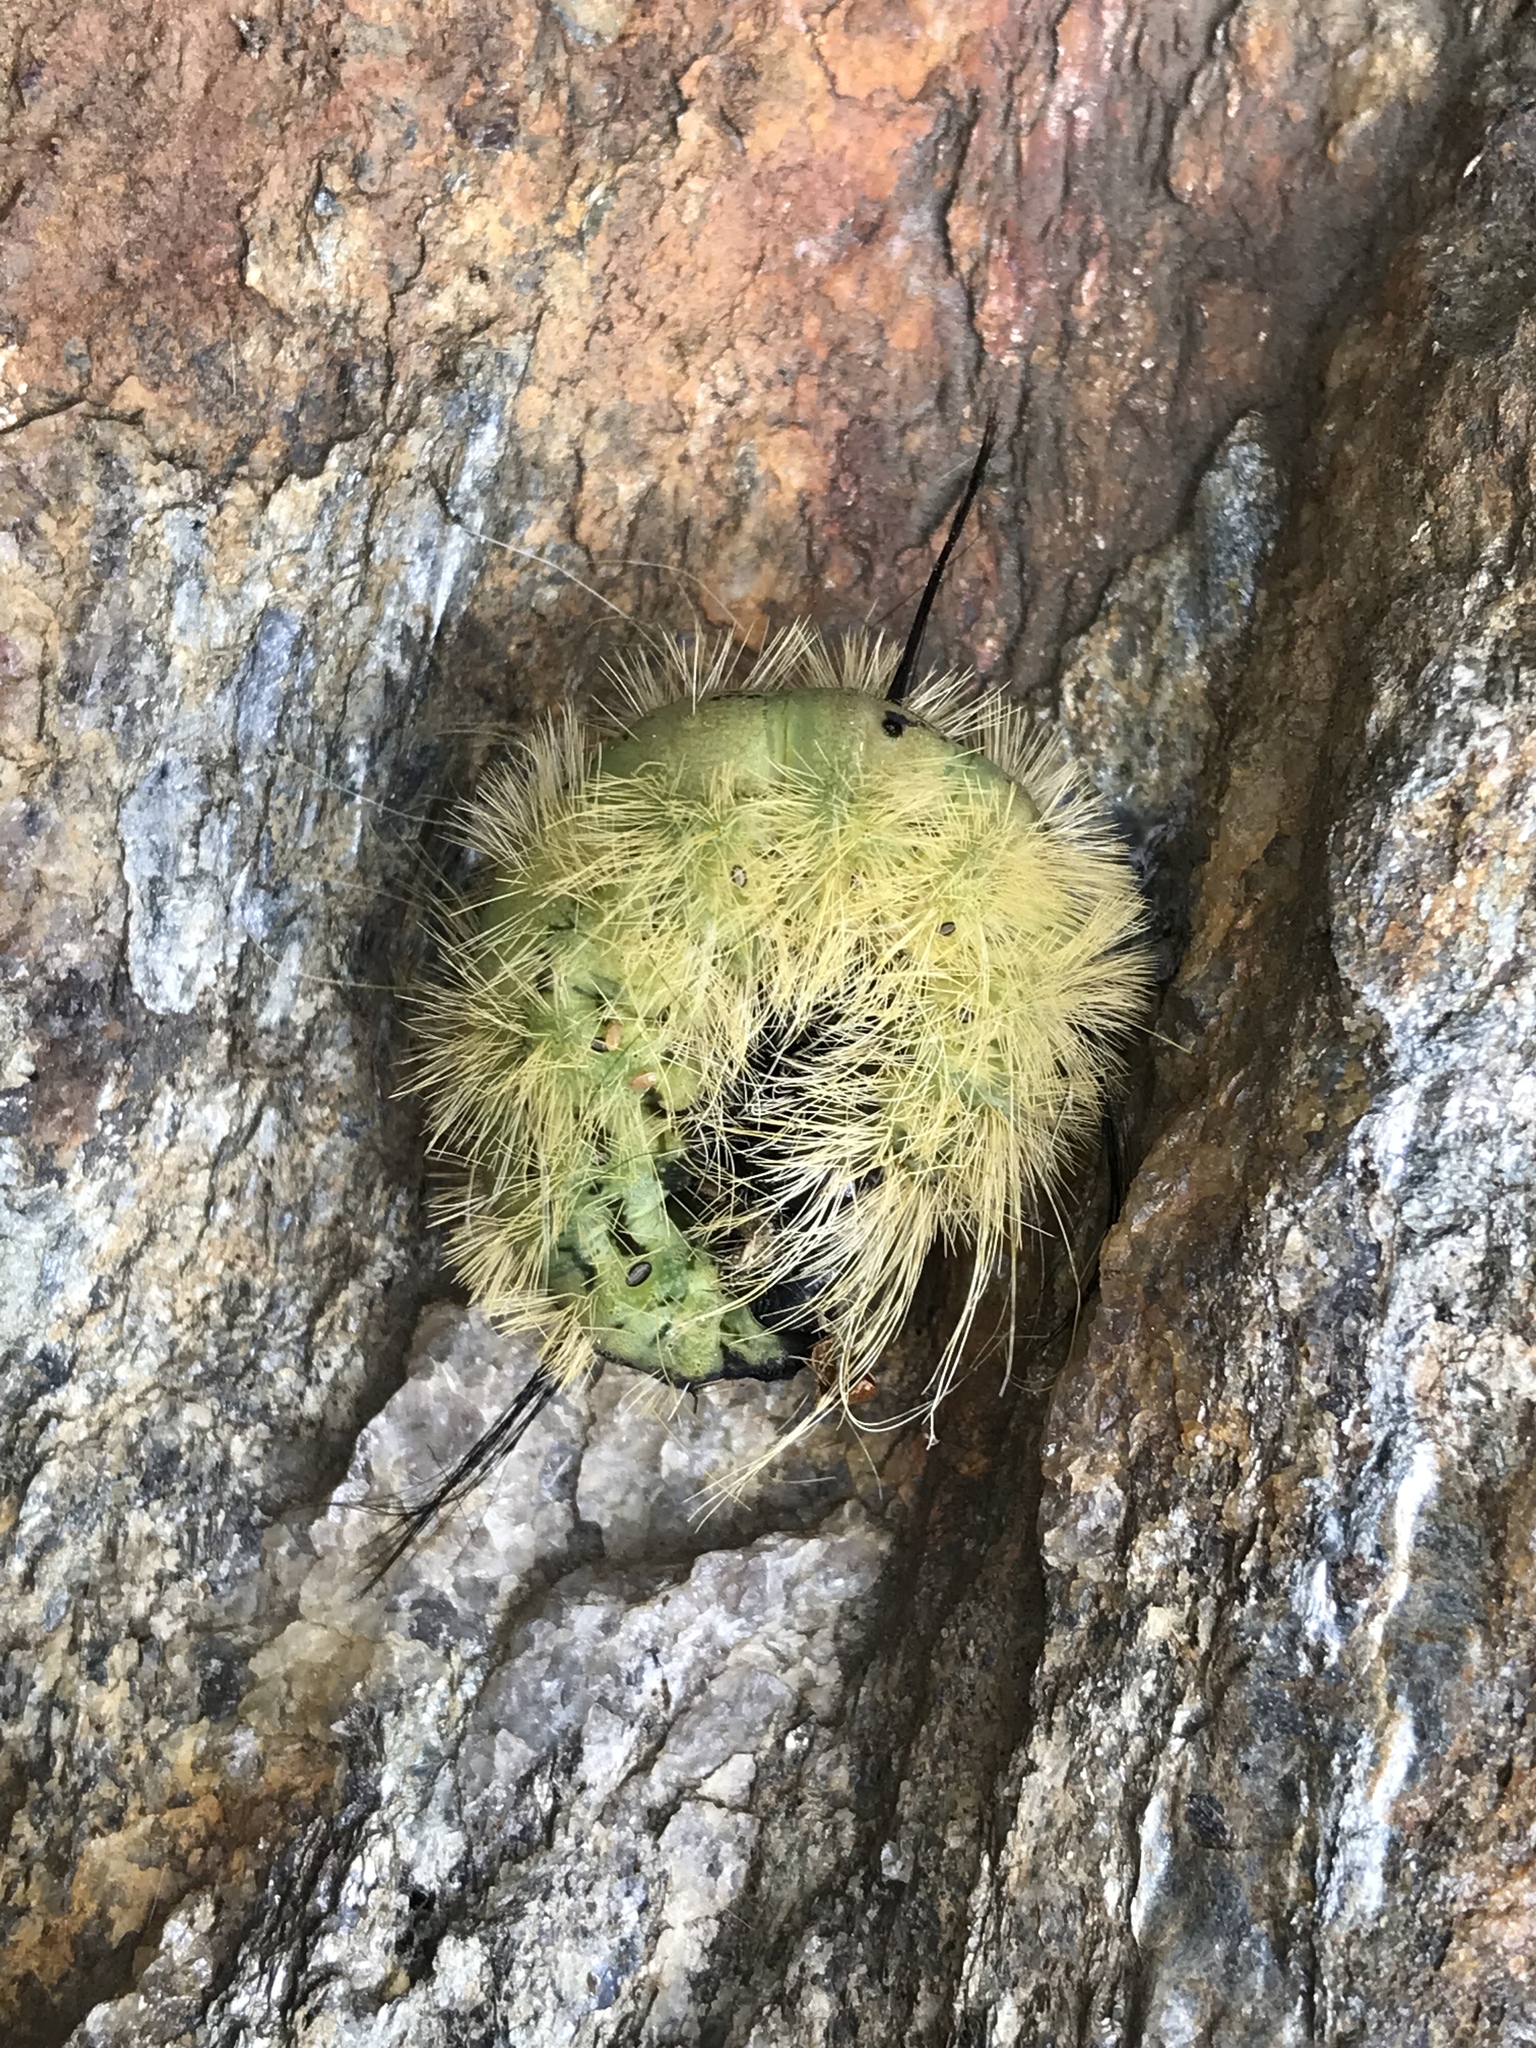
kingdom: Animalia
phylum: Arthropoda
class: Insecta
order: Lepidoptera
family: Noctuidae
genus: Acronicta
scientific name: Acronicta americana
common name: American dagger
